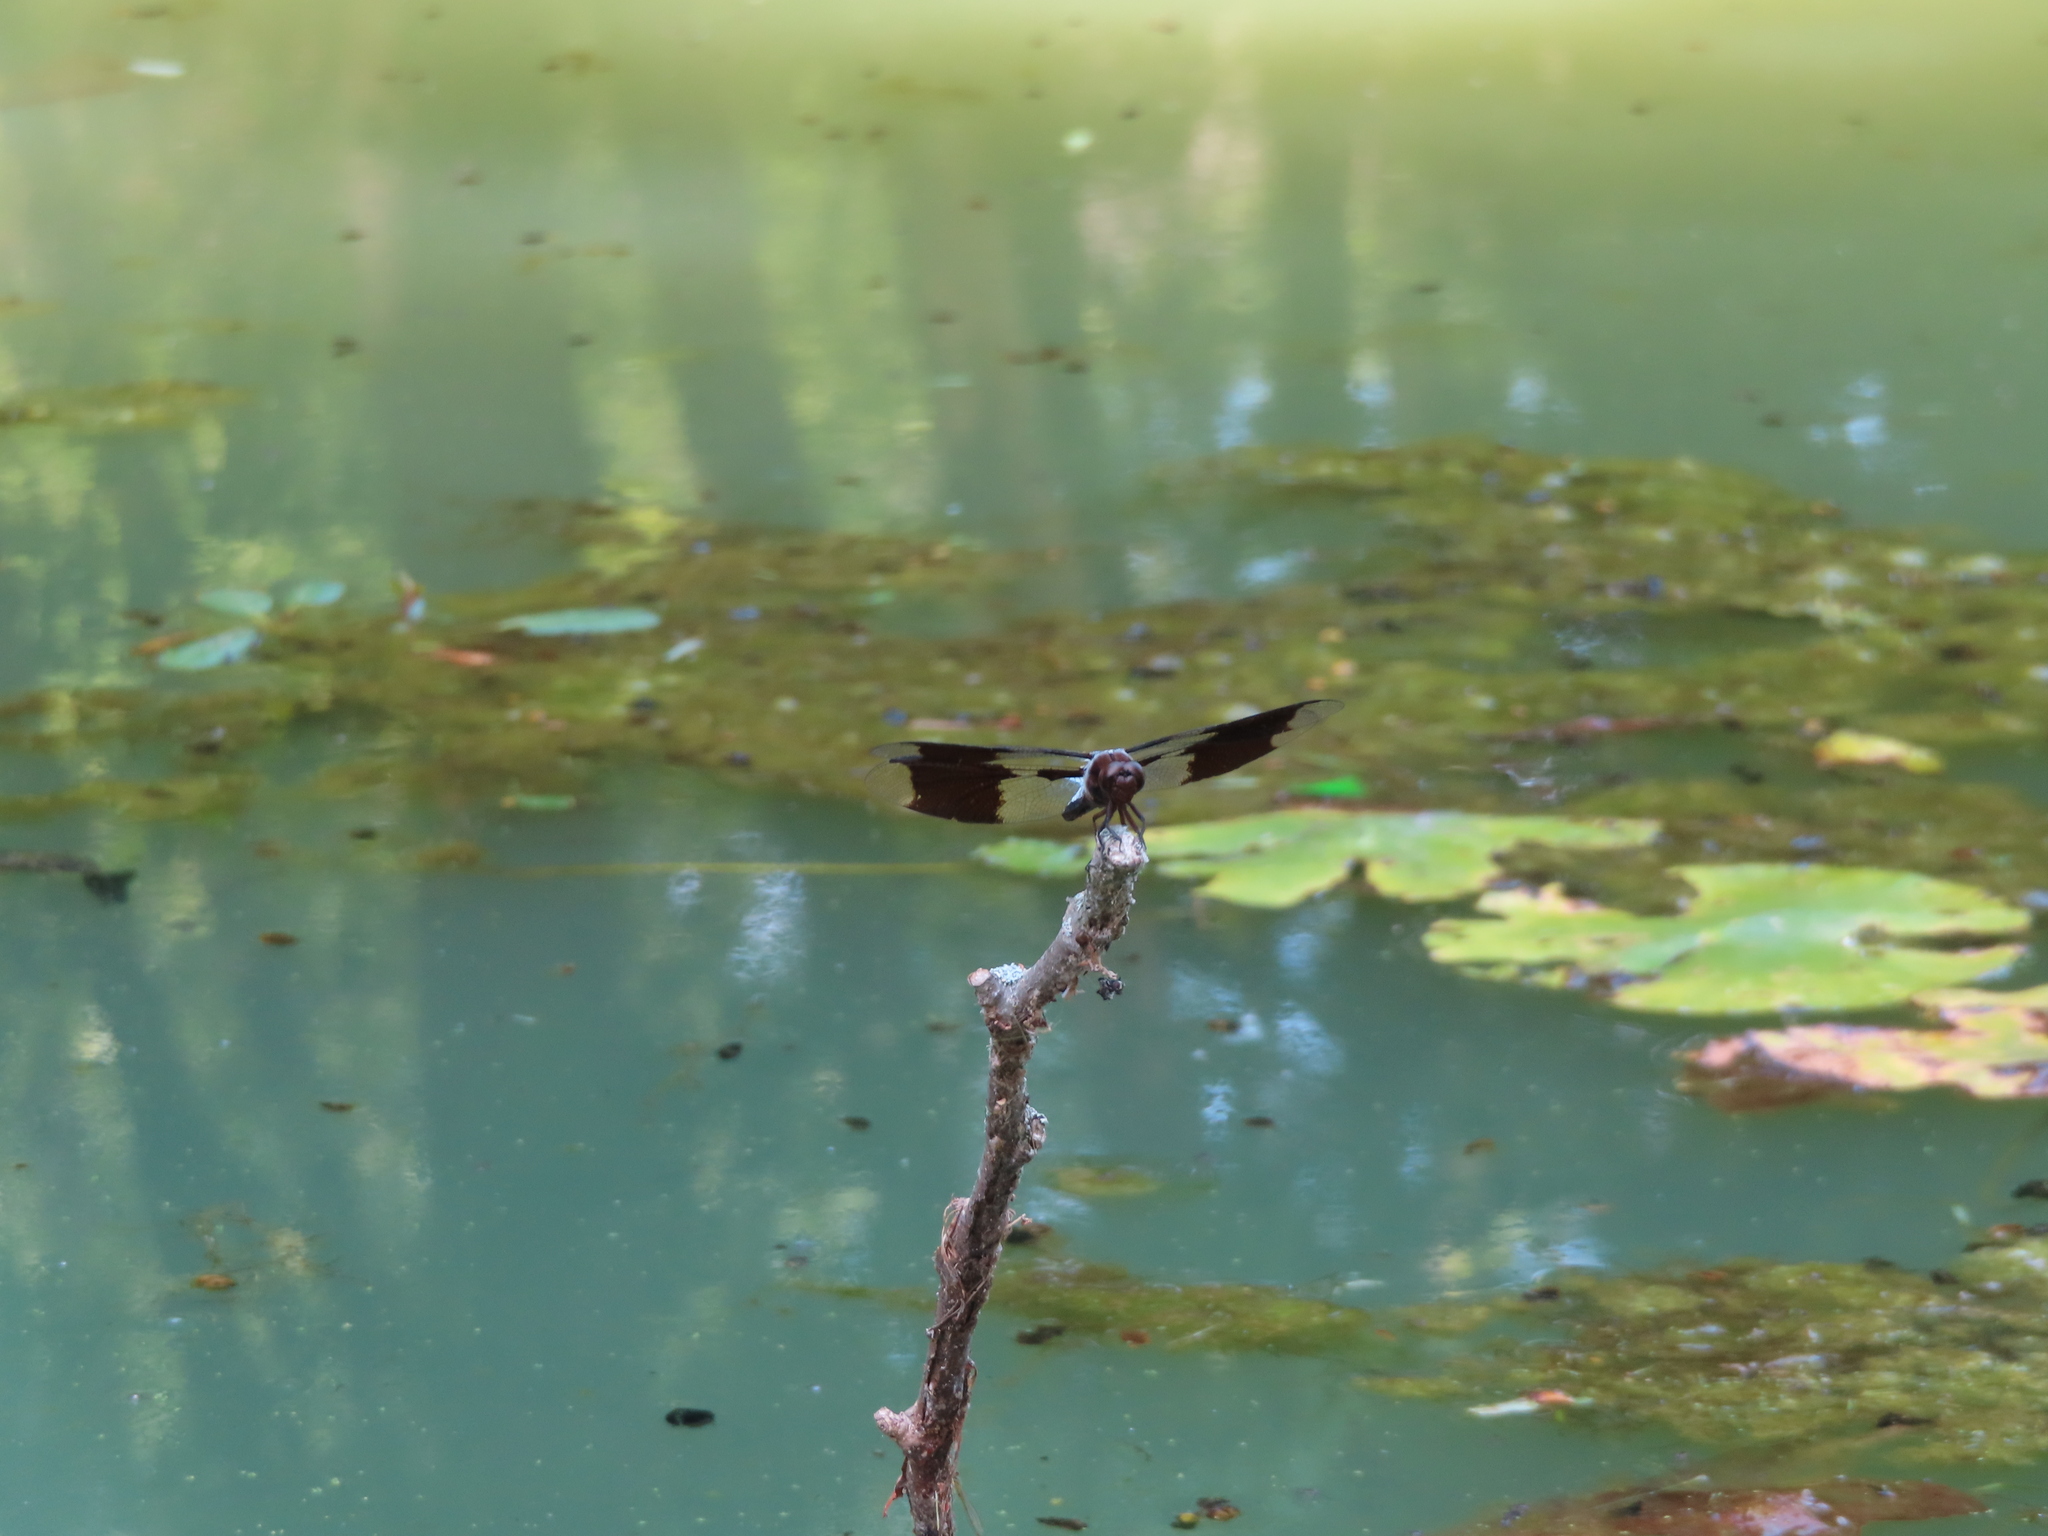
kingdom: Animalia
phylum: Arthropoda
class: Insecta
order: Odonata
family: Libellulidae
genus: Pachydiplax
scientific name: Pachydiplax longipennis
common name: Blue dasher
